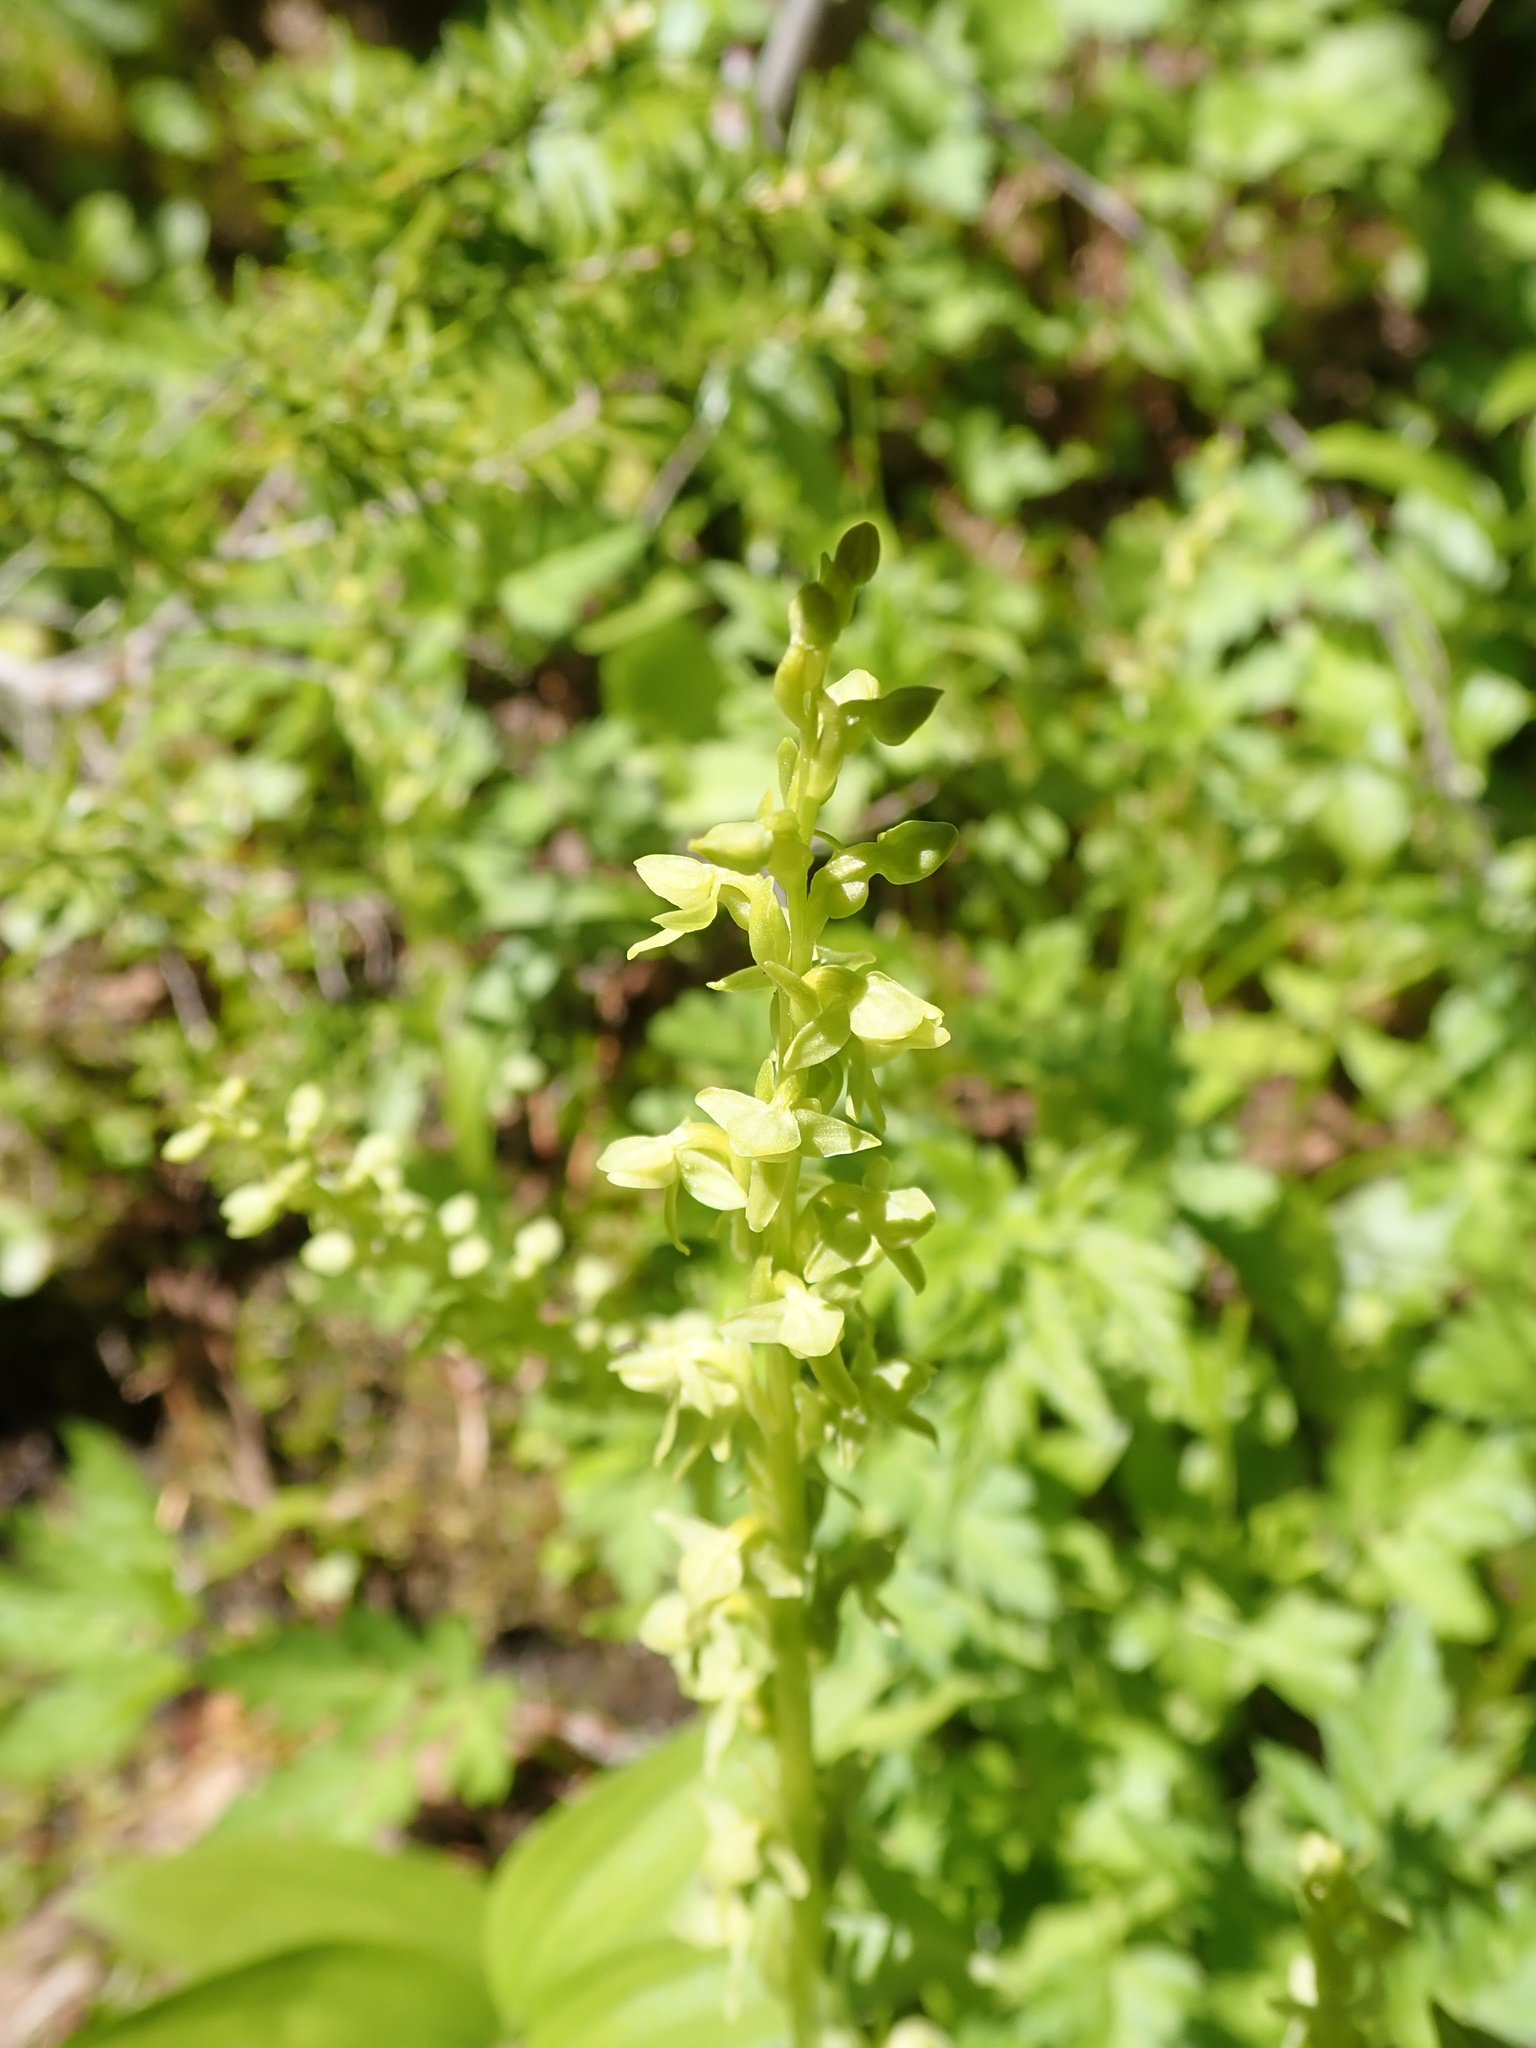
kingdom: Plantae
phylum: Tracheophyta
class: Liliopsida
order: Asparagales
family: Orchidaceae
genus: Platanthera
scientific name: Platanthera stricta
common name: Slender bog orchid
